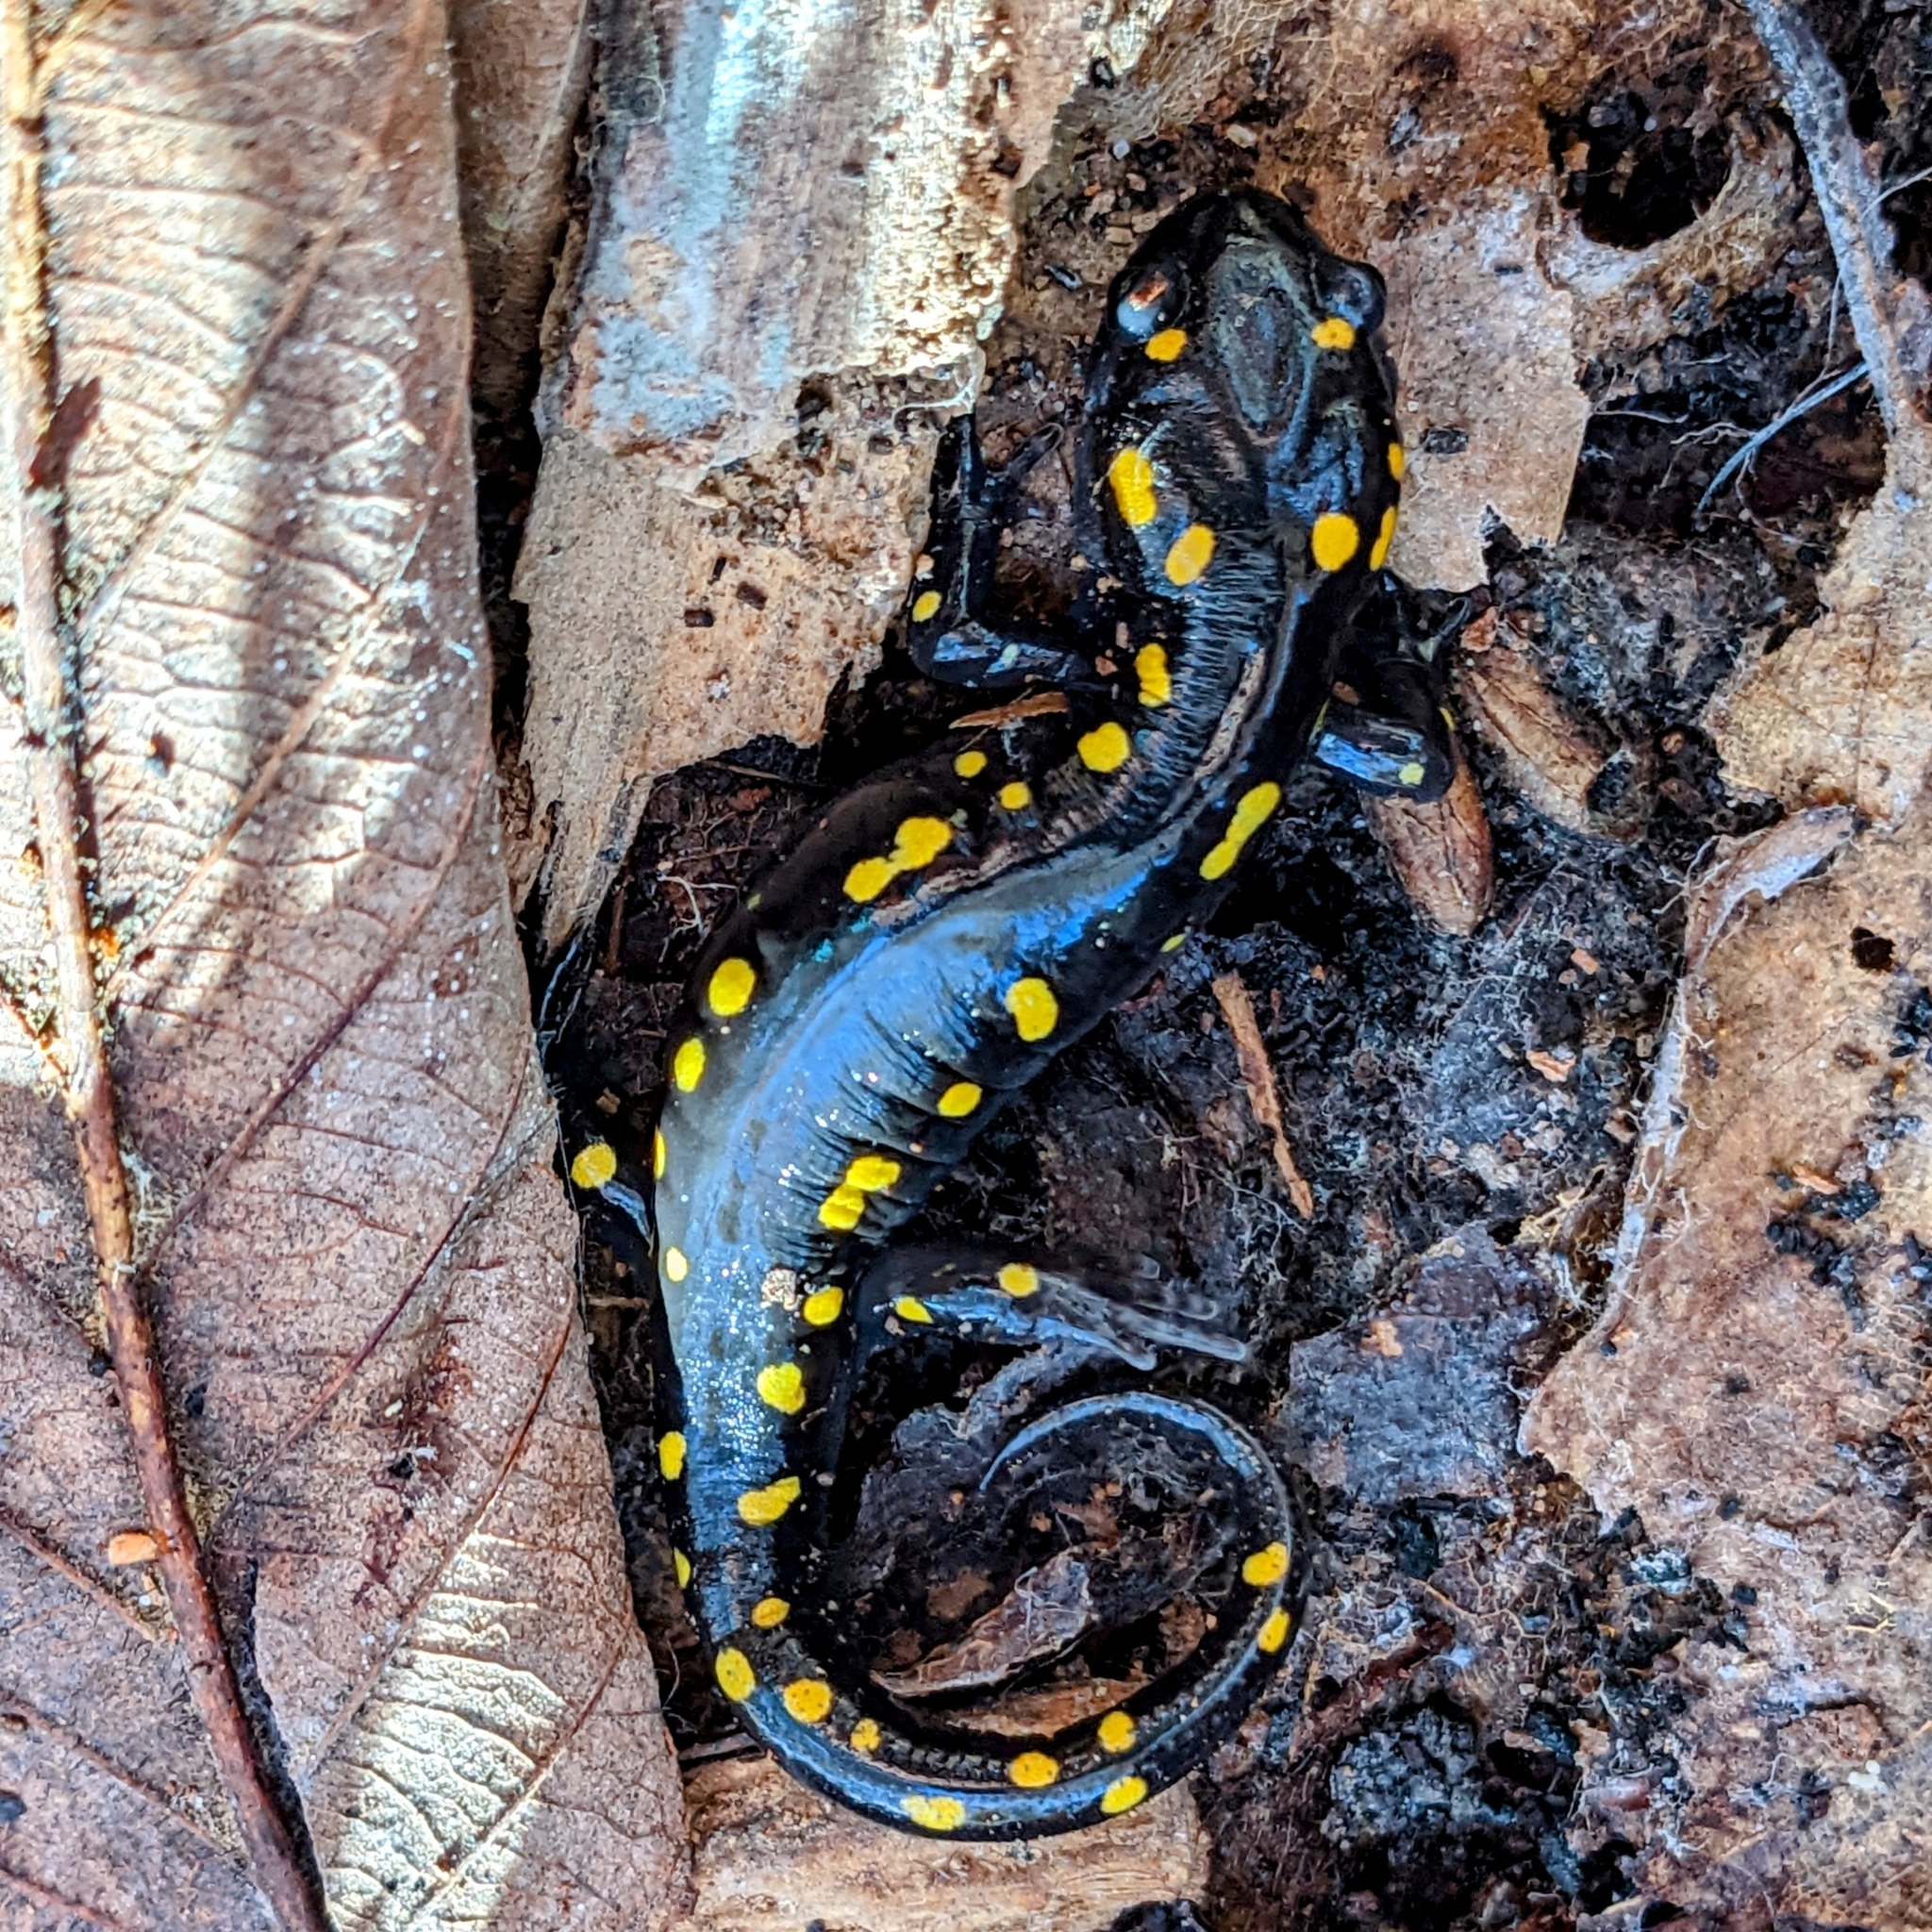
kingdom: Animalia
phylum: Chordata
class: Amphibia
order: Caudata
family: Ambystomatidae
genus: Ambystoma
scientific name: Ambystoma maculatum
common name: Spotted salamander
